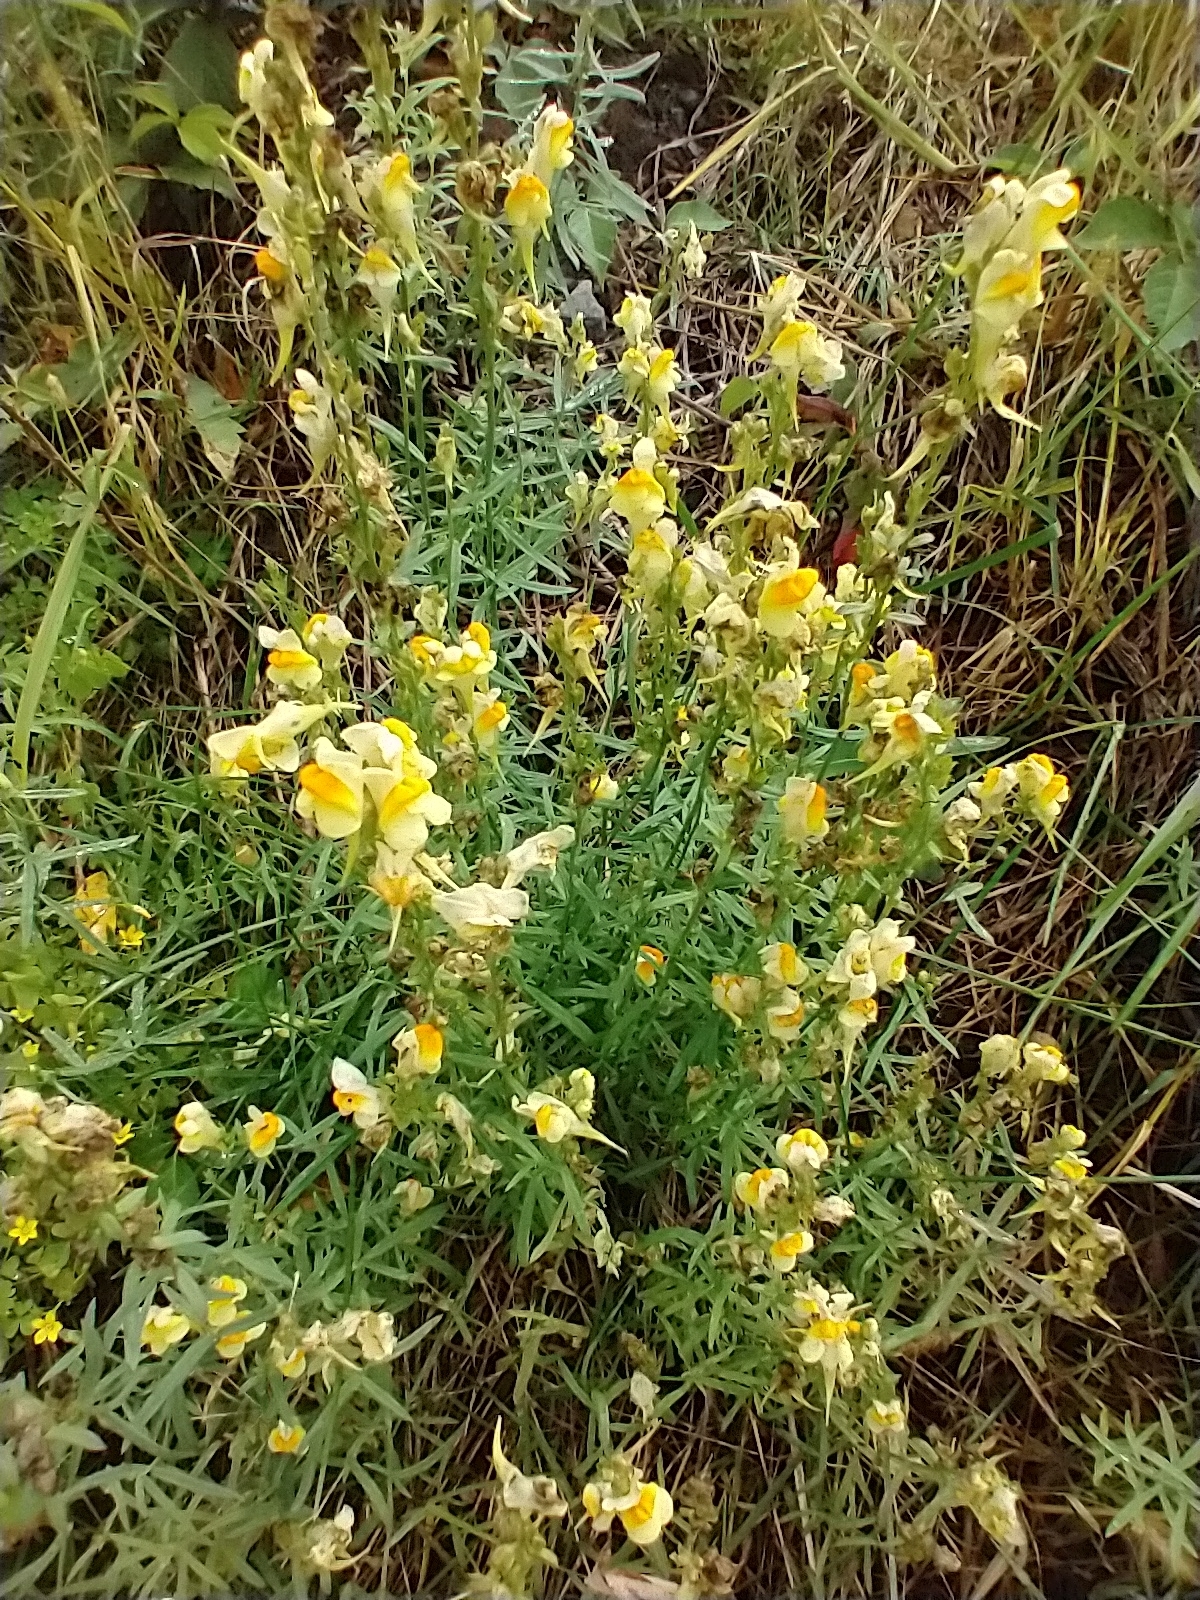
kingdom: Plantae
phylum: Tracheophyta
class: Magnoliopsida
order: Lamiales
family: Plantaginaceae
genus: Linaria
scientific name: Linaria vulgaris
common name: Butter and eggs
